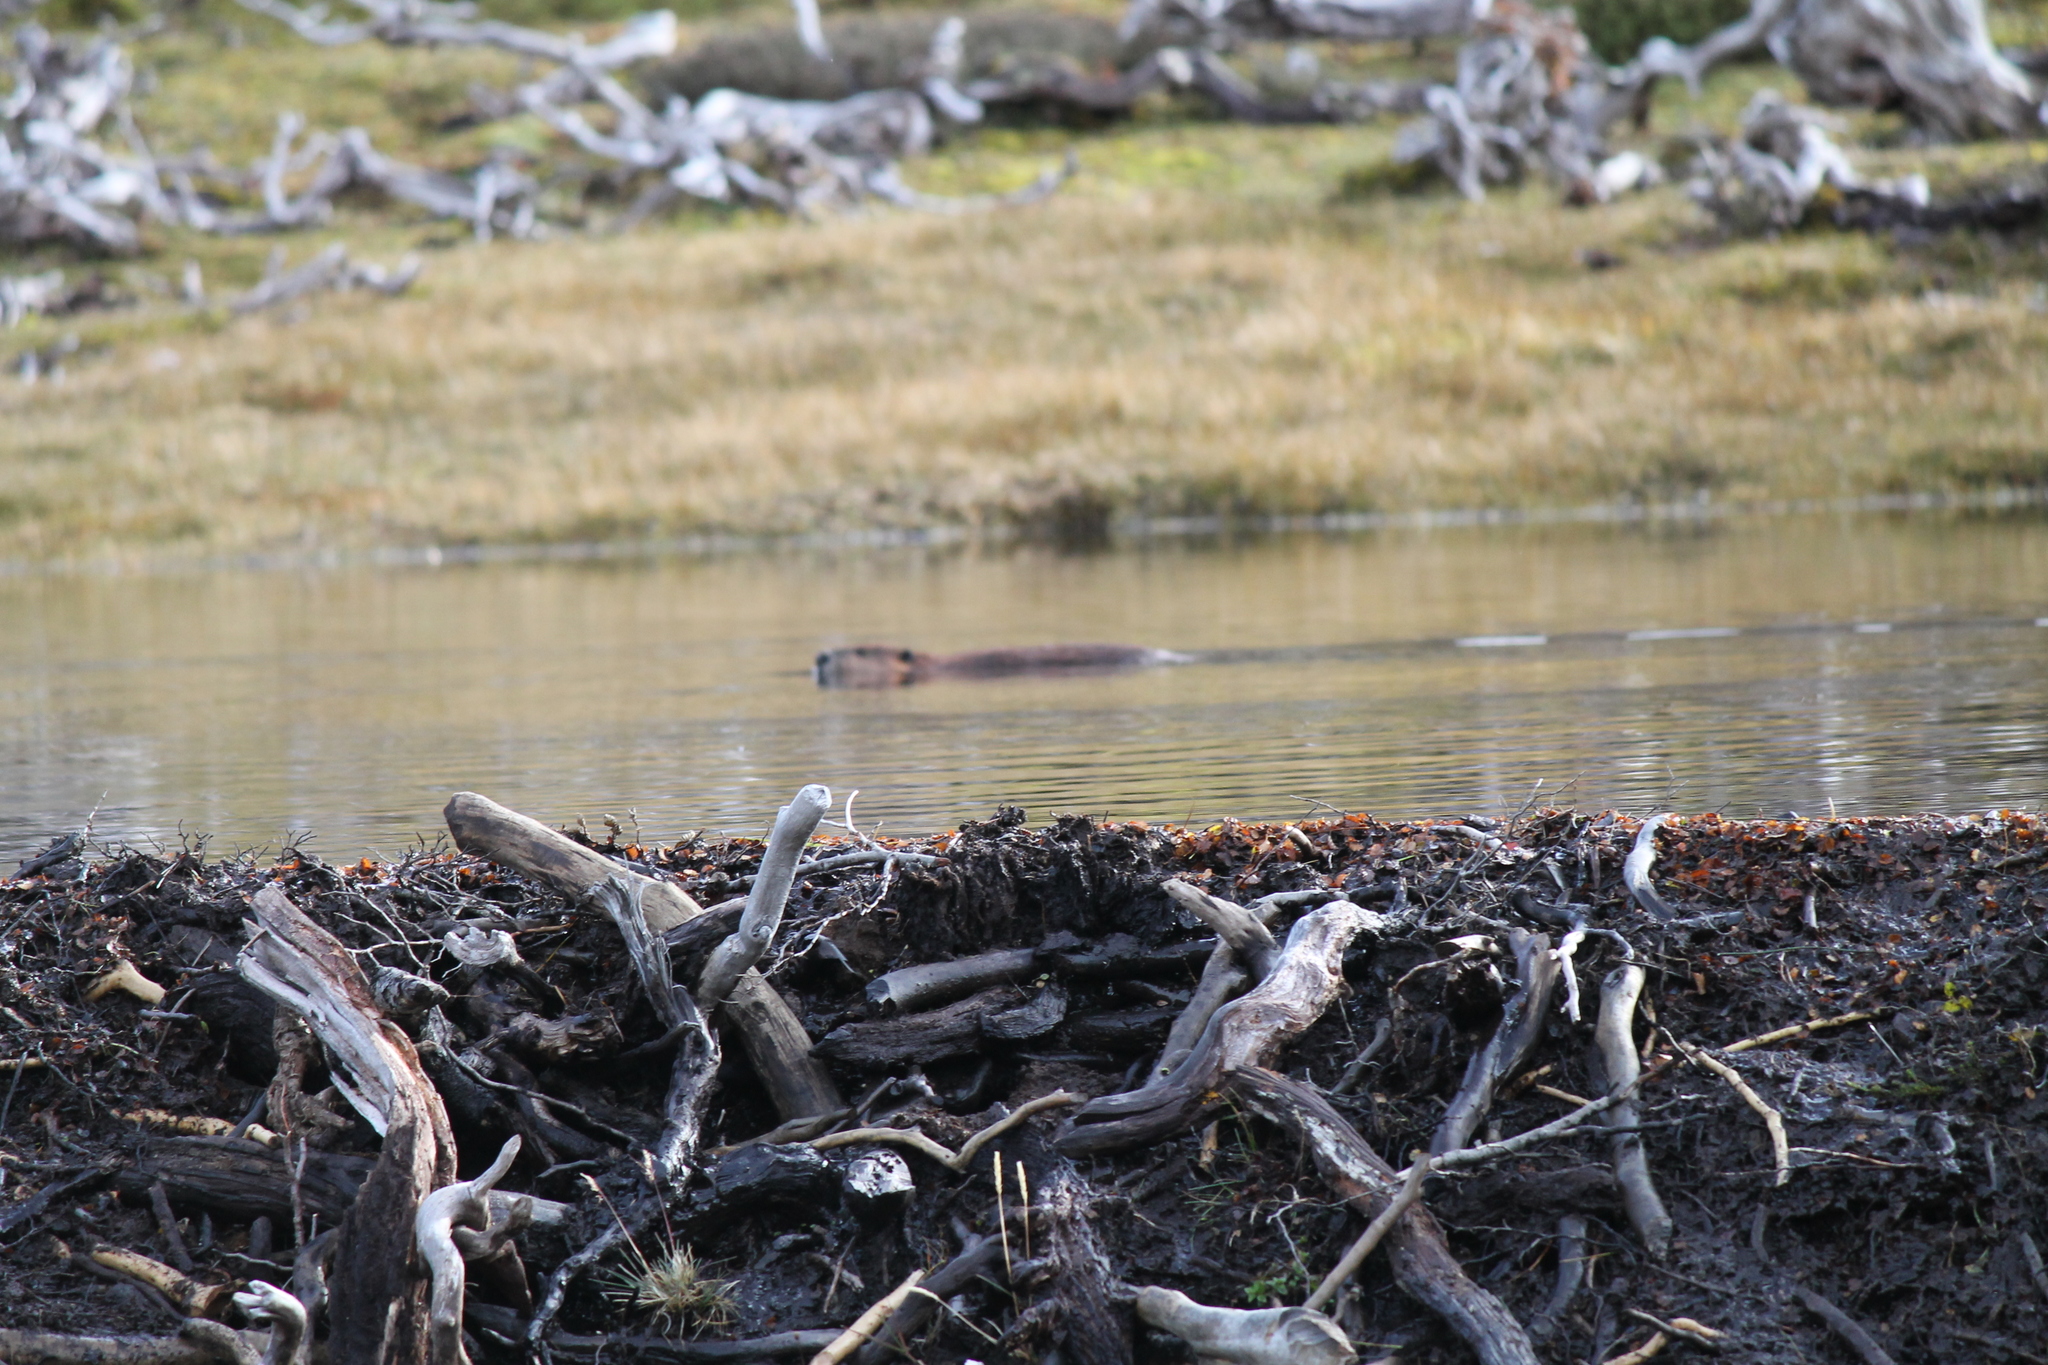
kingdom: Animalia
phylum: Chordata
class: Mammalia
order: Rodentia
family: Castoridae
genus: Castor
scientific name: Castor canadensis
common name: American beaver
